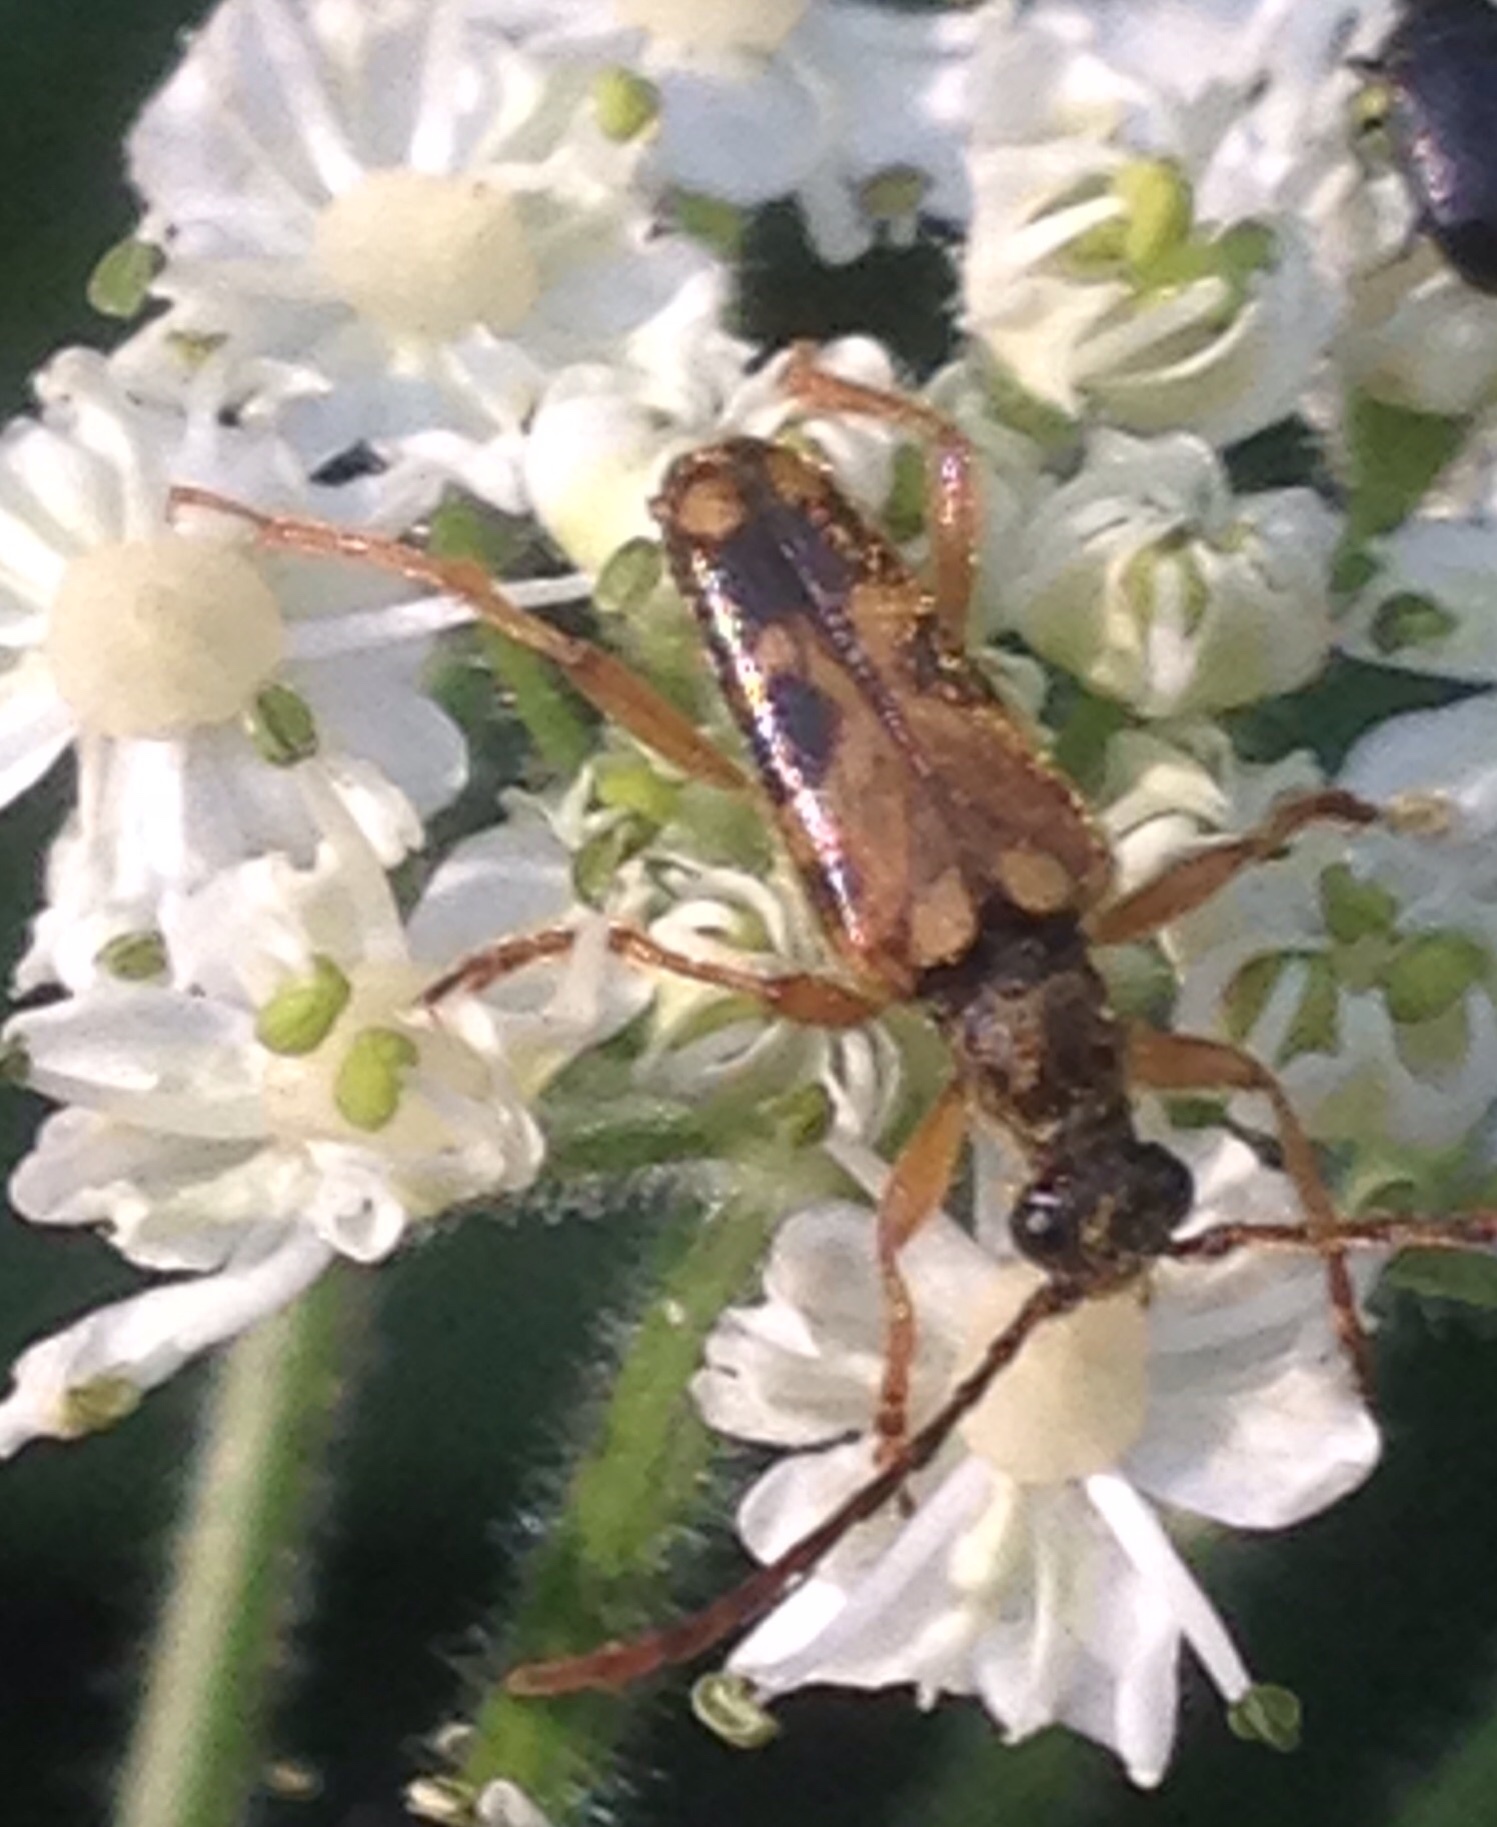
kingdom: Animalia
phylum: Arthropoda
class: Insecta
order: Coleoptera
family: Cerambycidae
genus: Xestoleptura
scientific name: Xestoleptura crassipes
